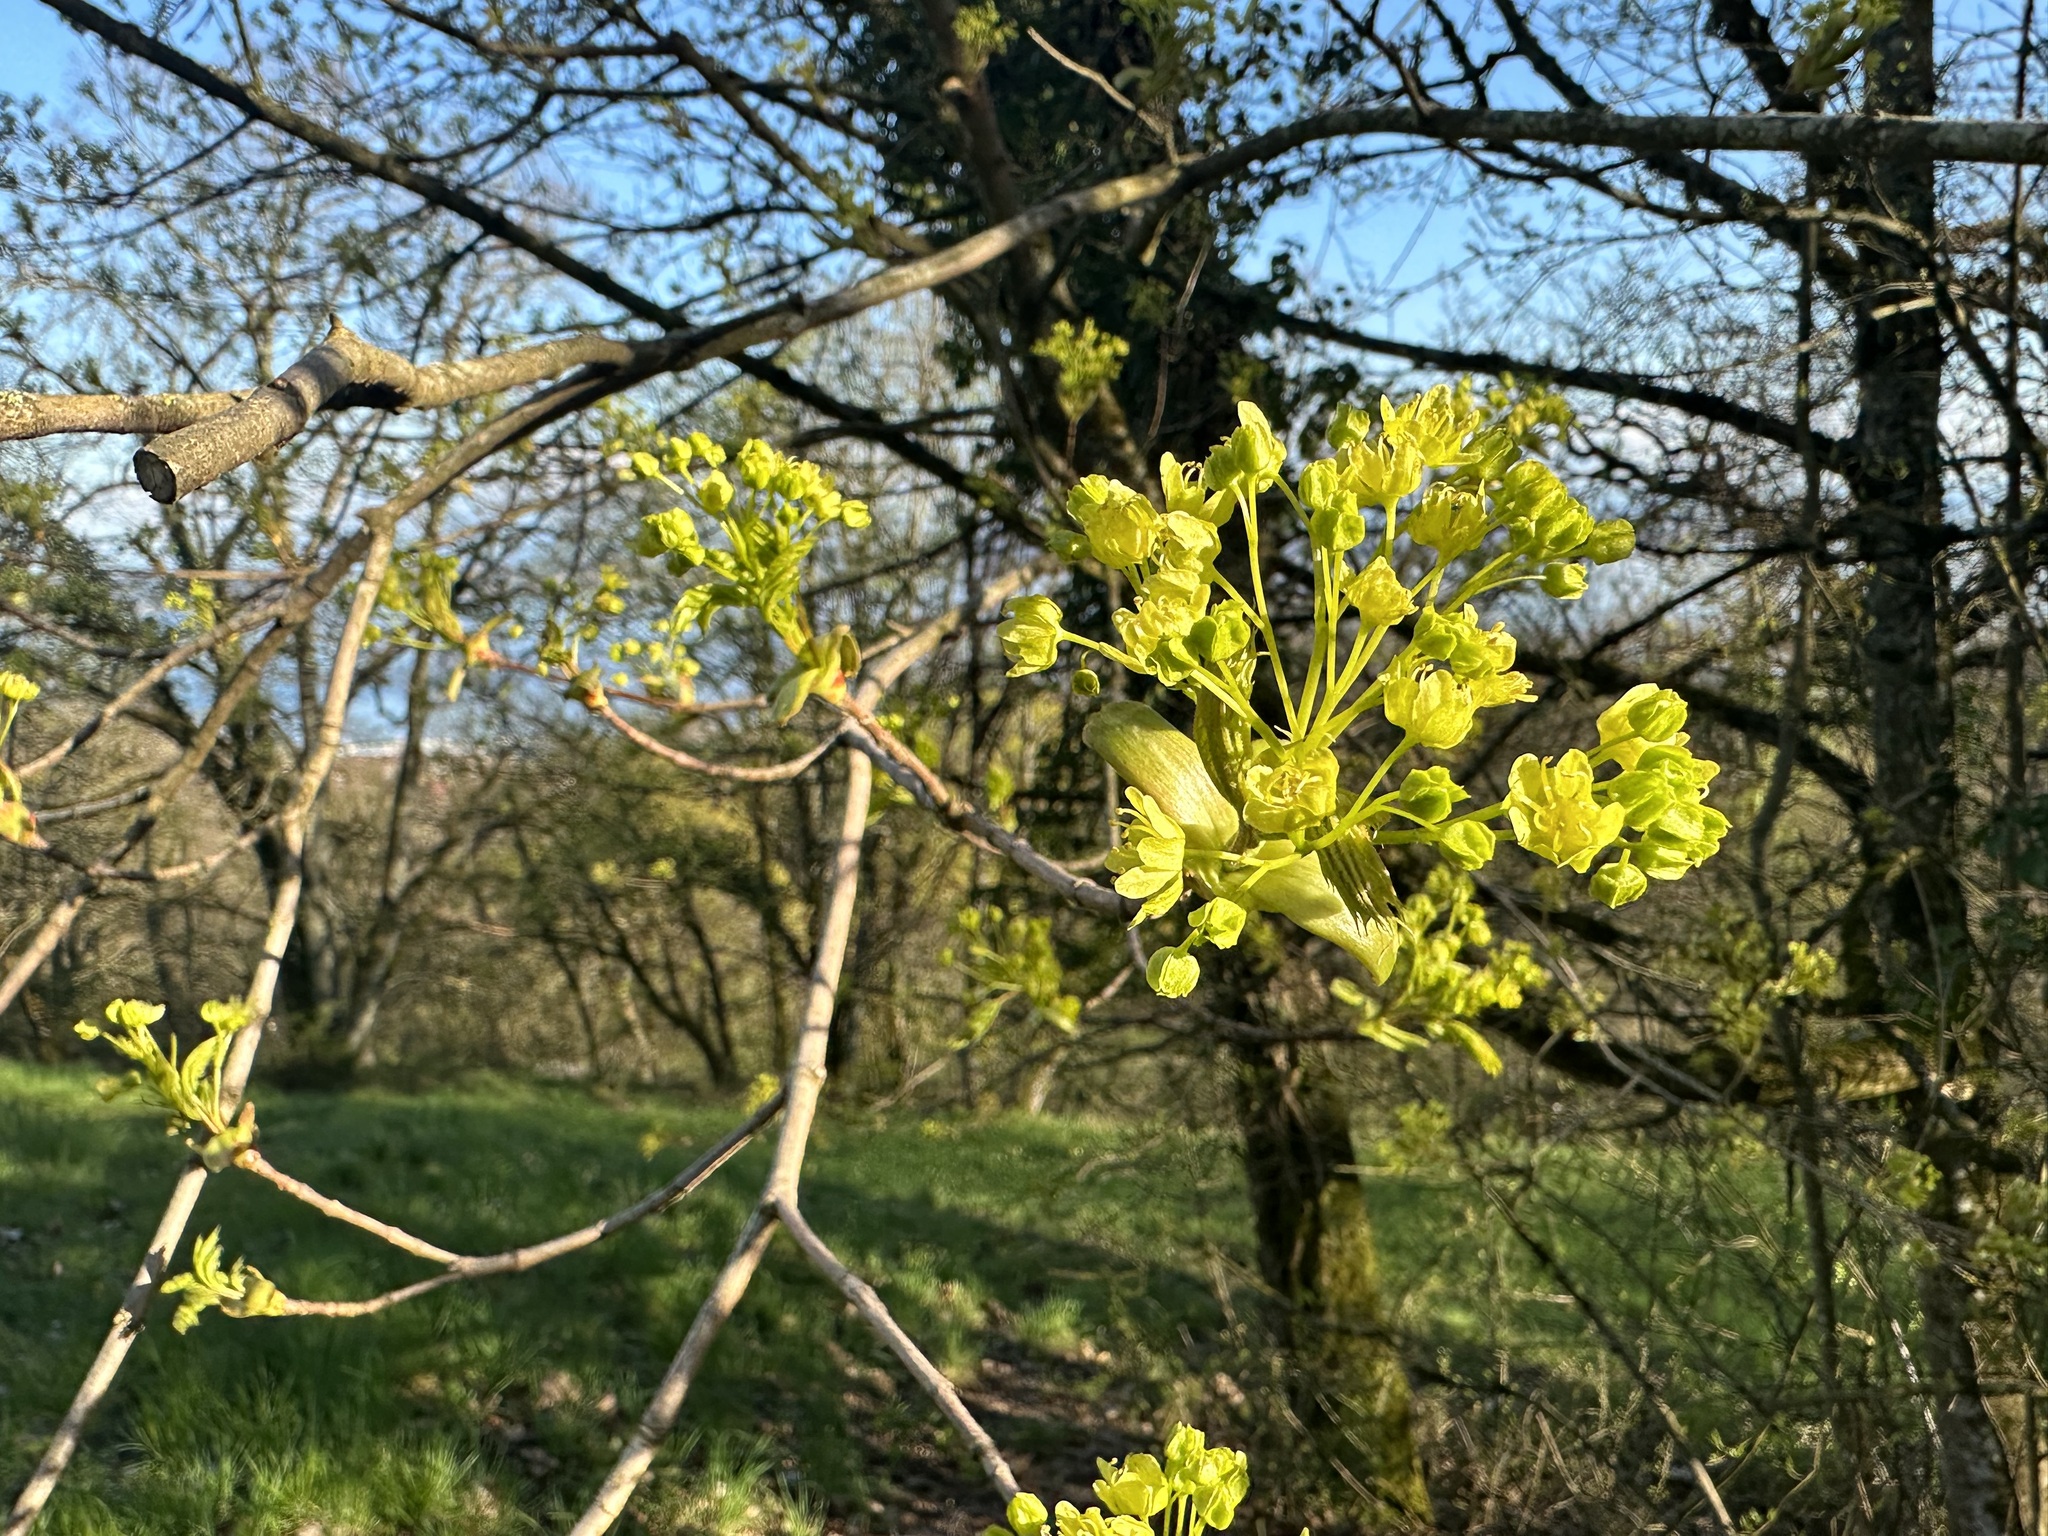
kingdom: Plantae
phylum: Tracheophyta
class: Magnoliopsida
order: Sapindales
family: Sapindaceae
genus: Acer
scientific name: Acer platanoides
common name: Norway maple
